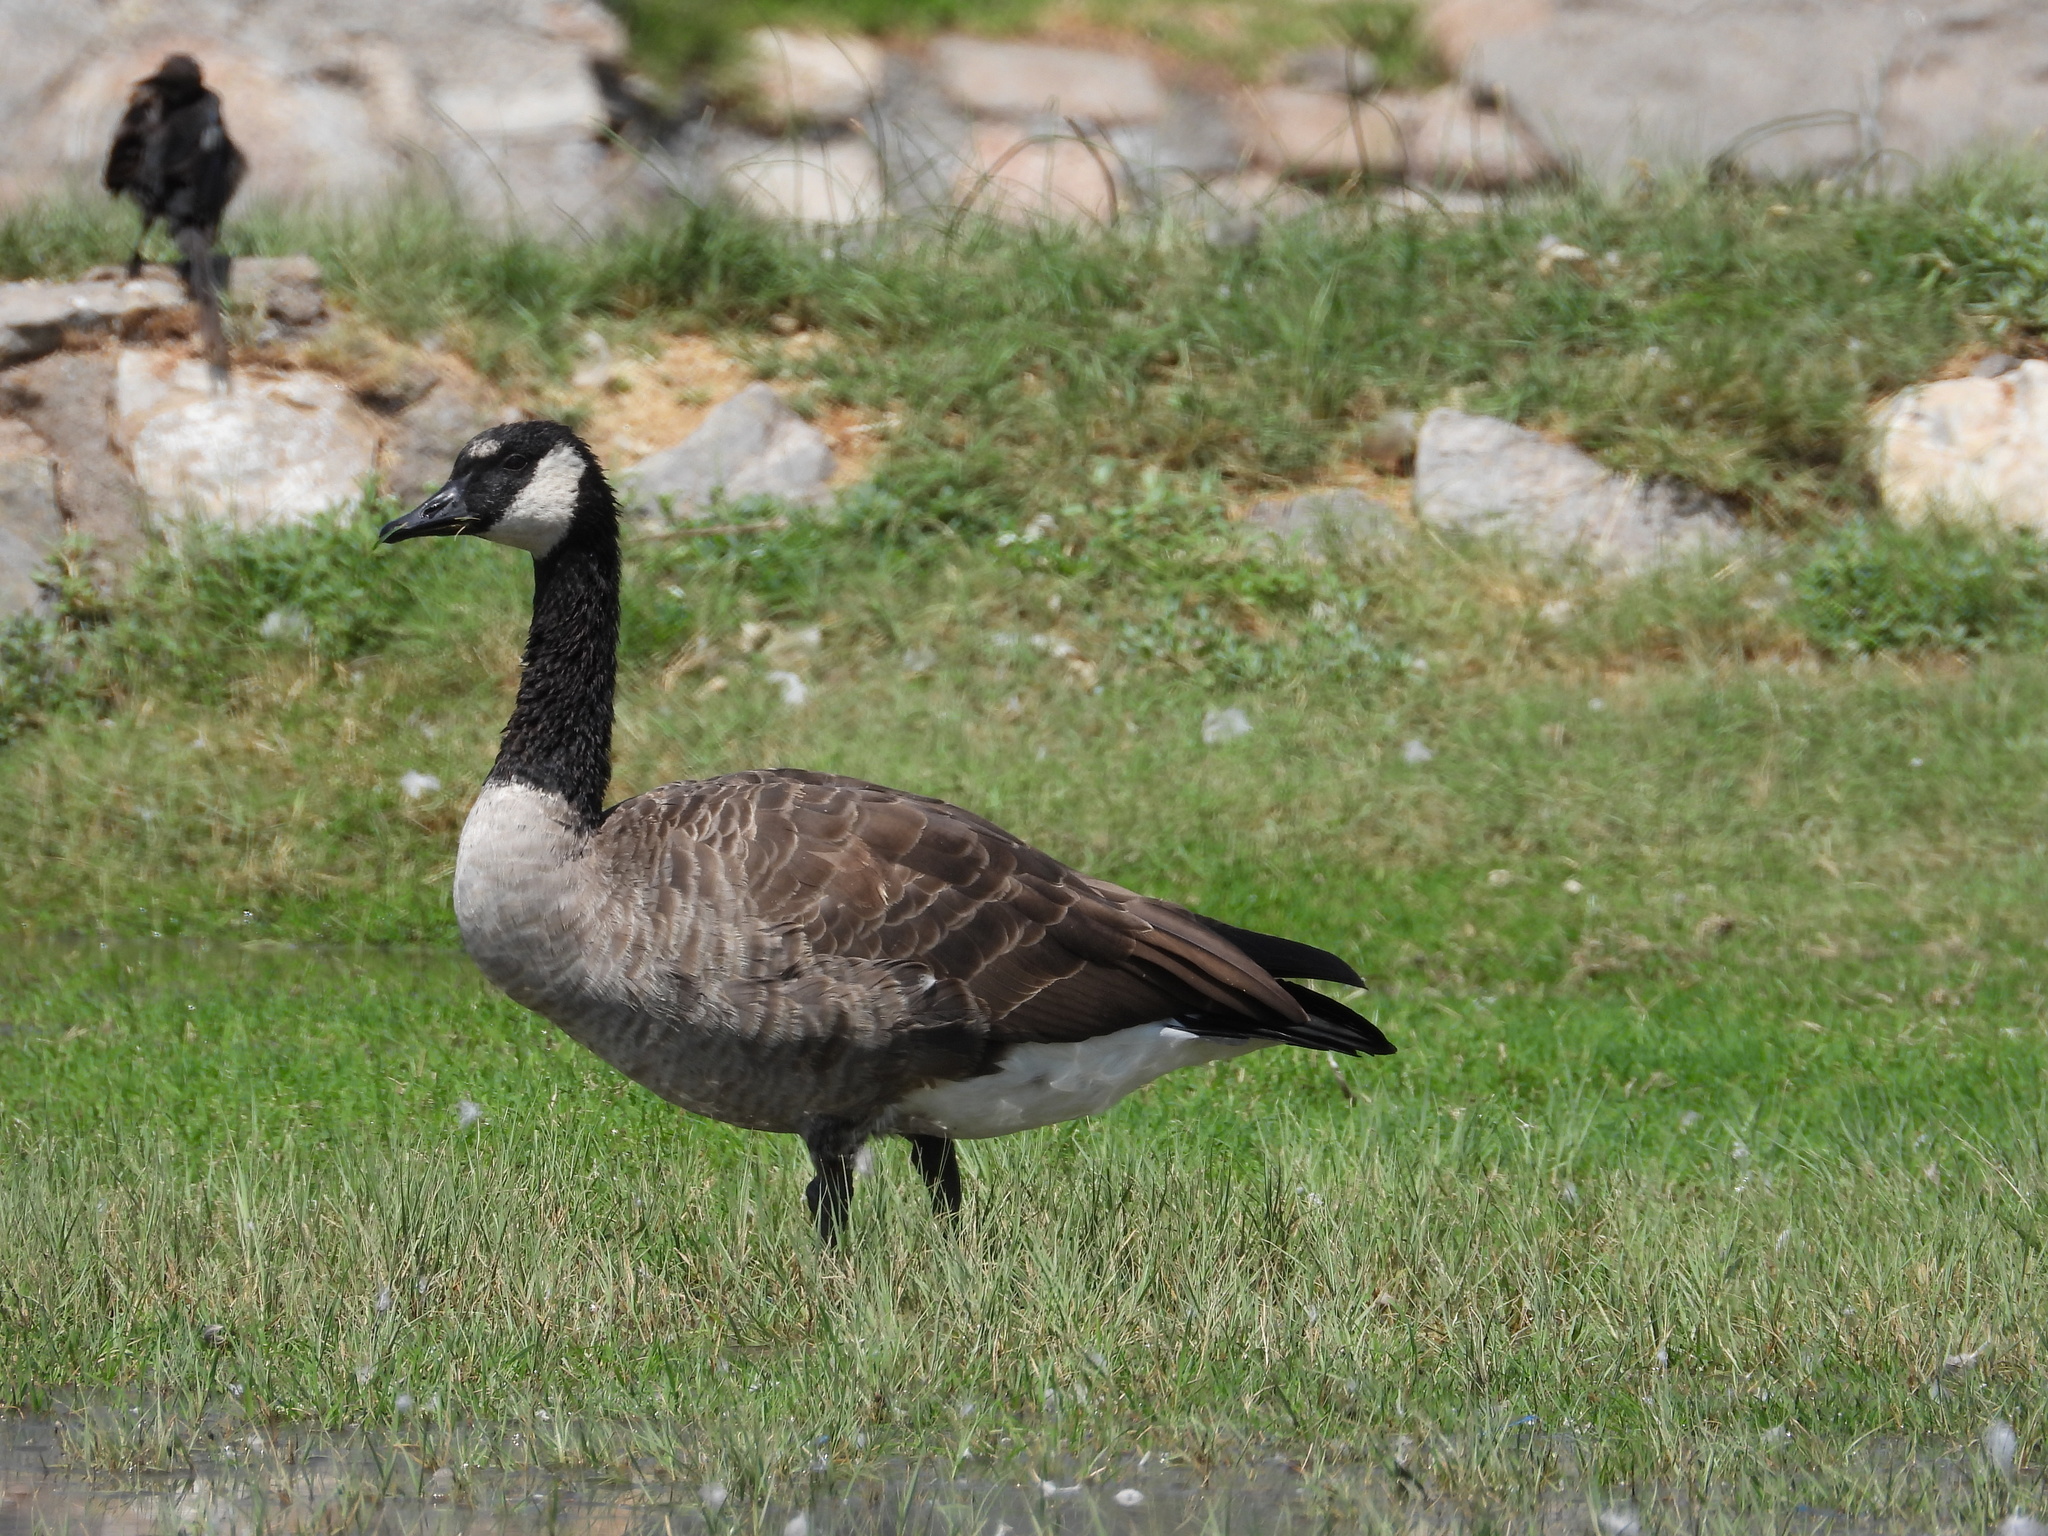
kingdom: Animalia
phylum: Chordata
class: Aves
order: Anseriformes
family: Anatidae
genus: Branta
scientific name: Branta canadensis
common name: Canada goose
